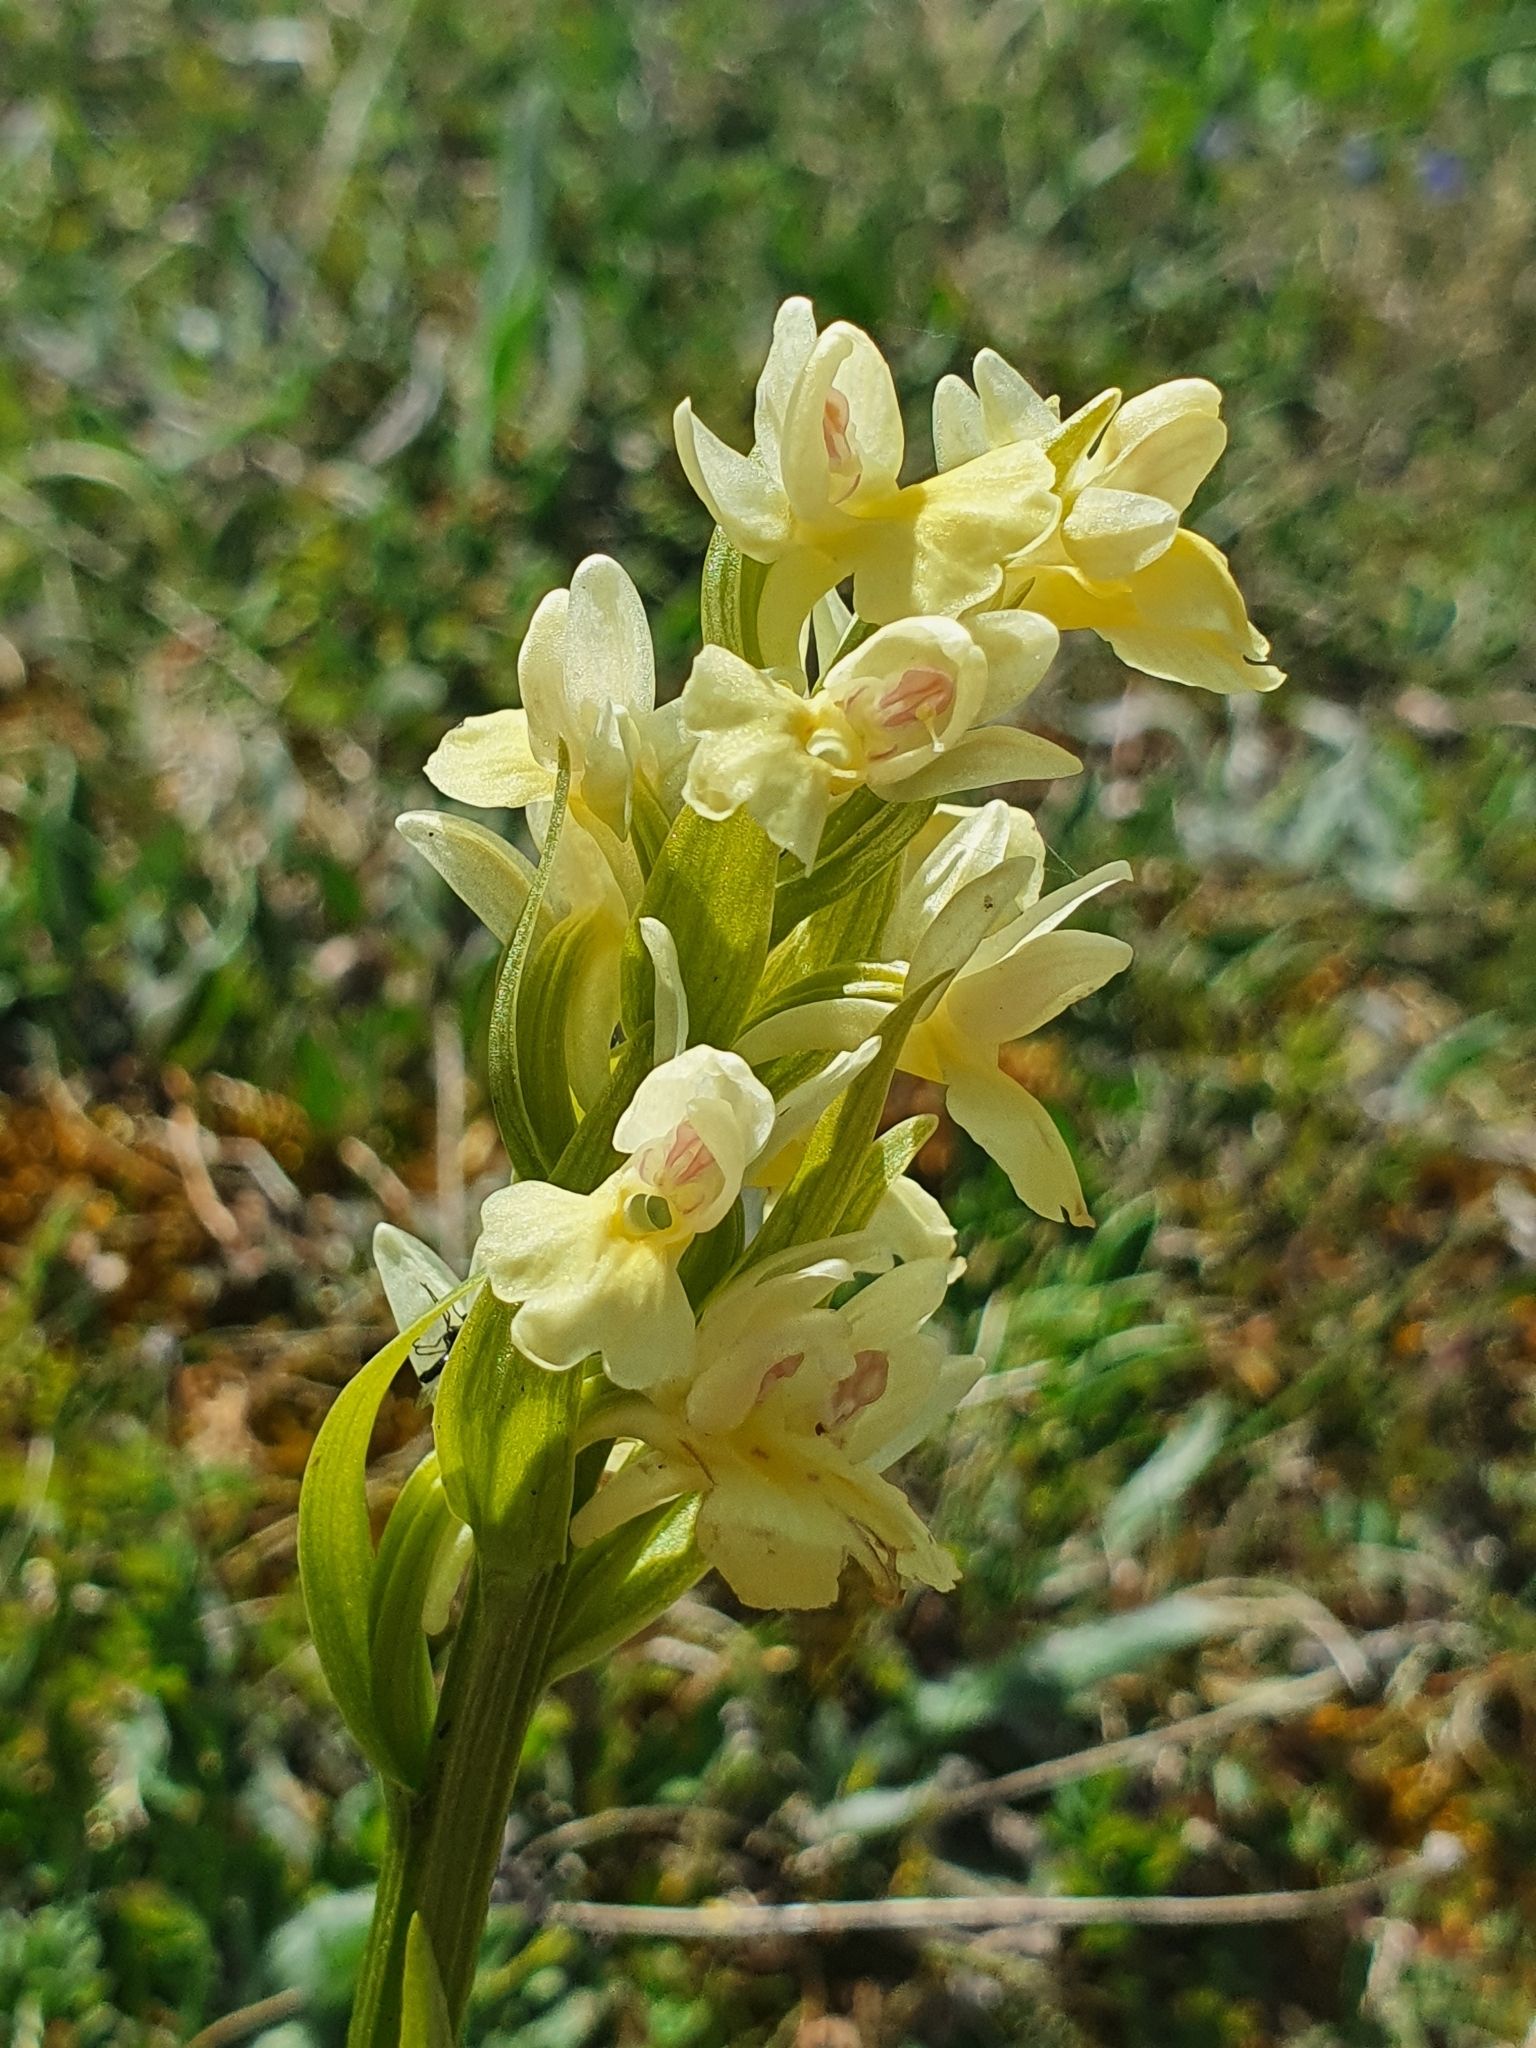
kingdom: Plantae
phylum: Tracheophyta
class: Liliopsida
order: Asparagales
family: Orchidaceae
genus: Dactylorhiza
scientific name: Dactylorhiza insularis
